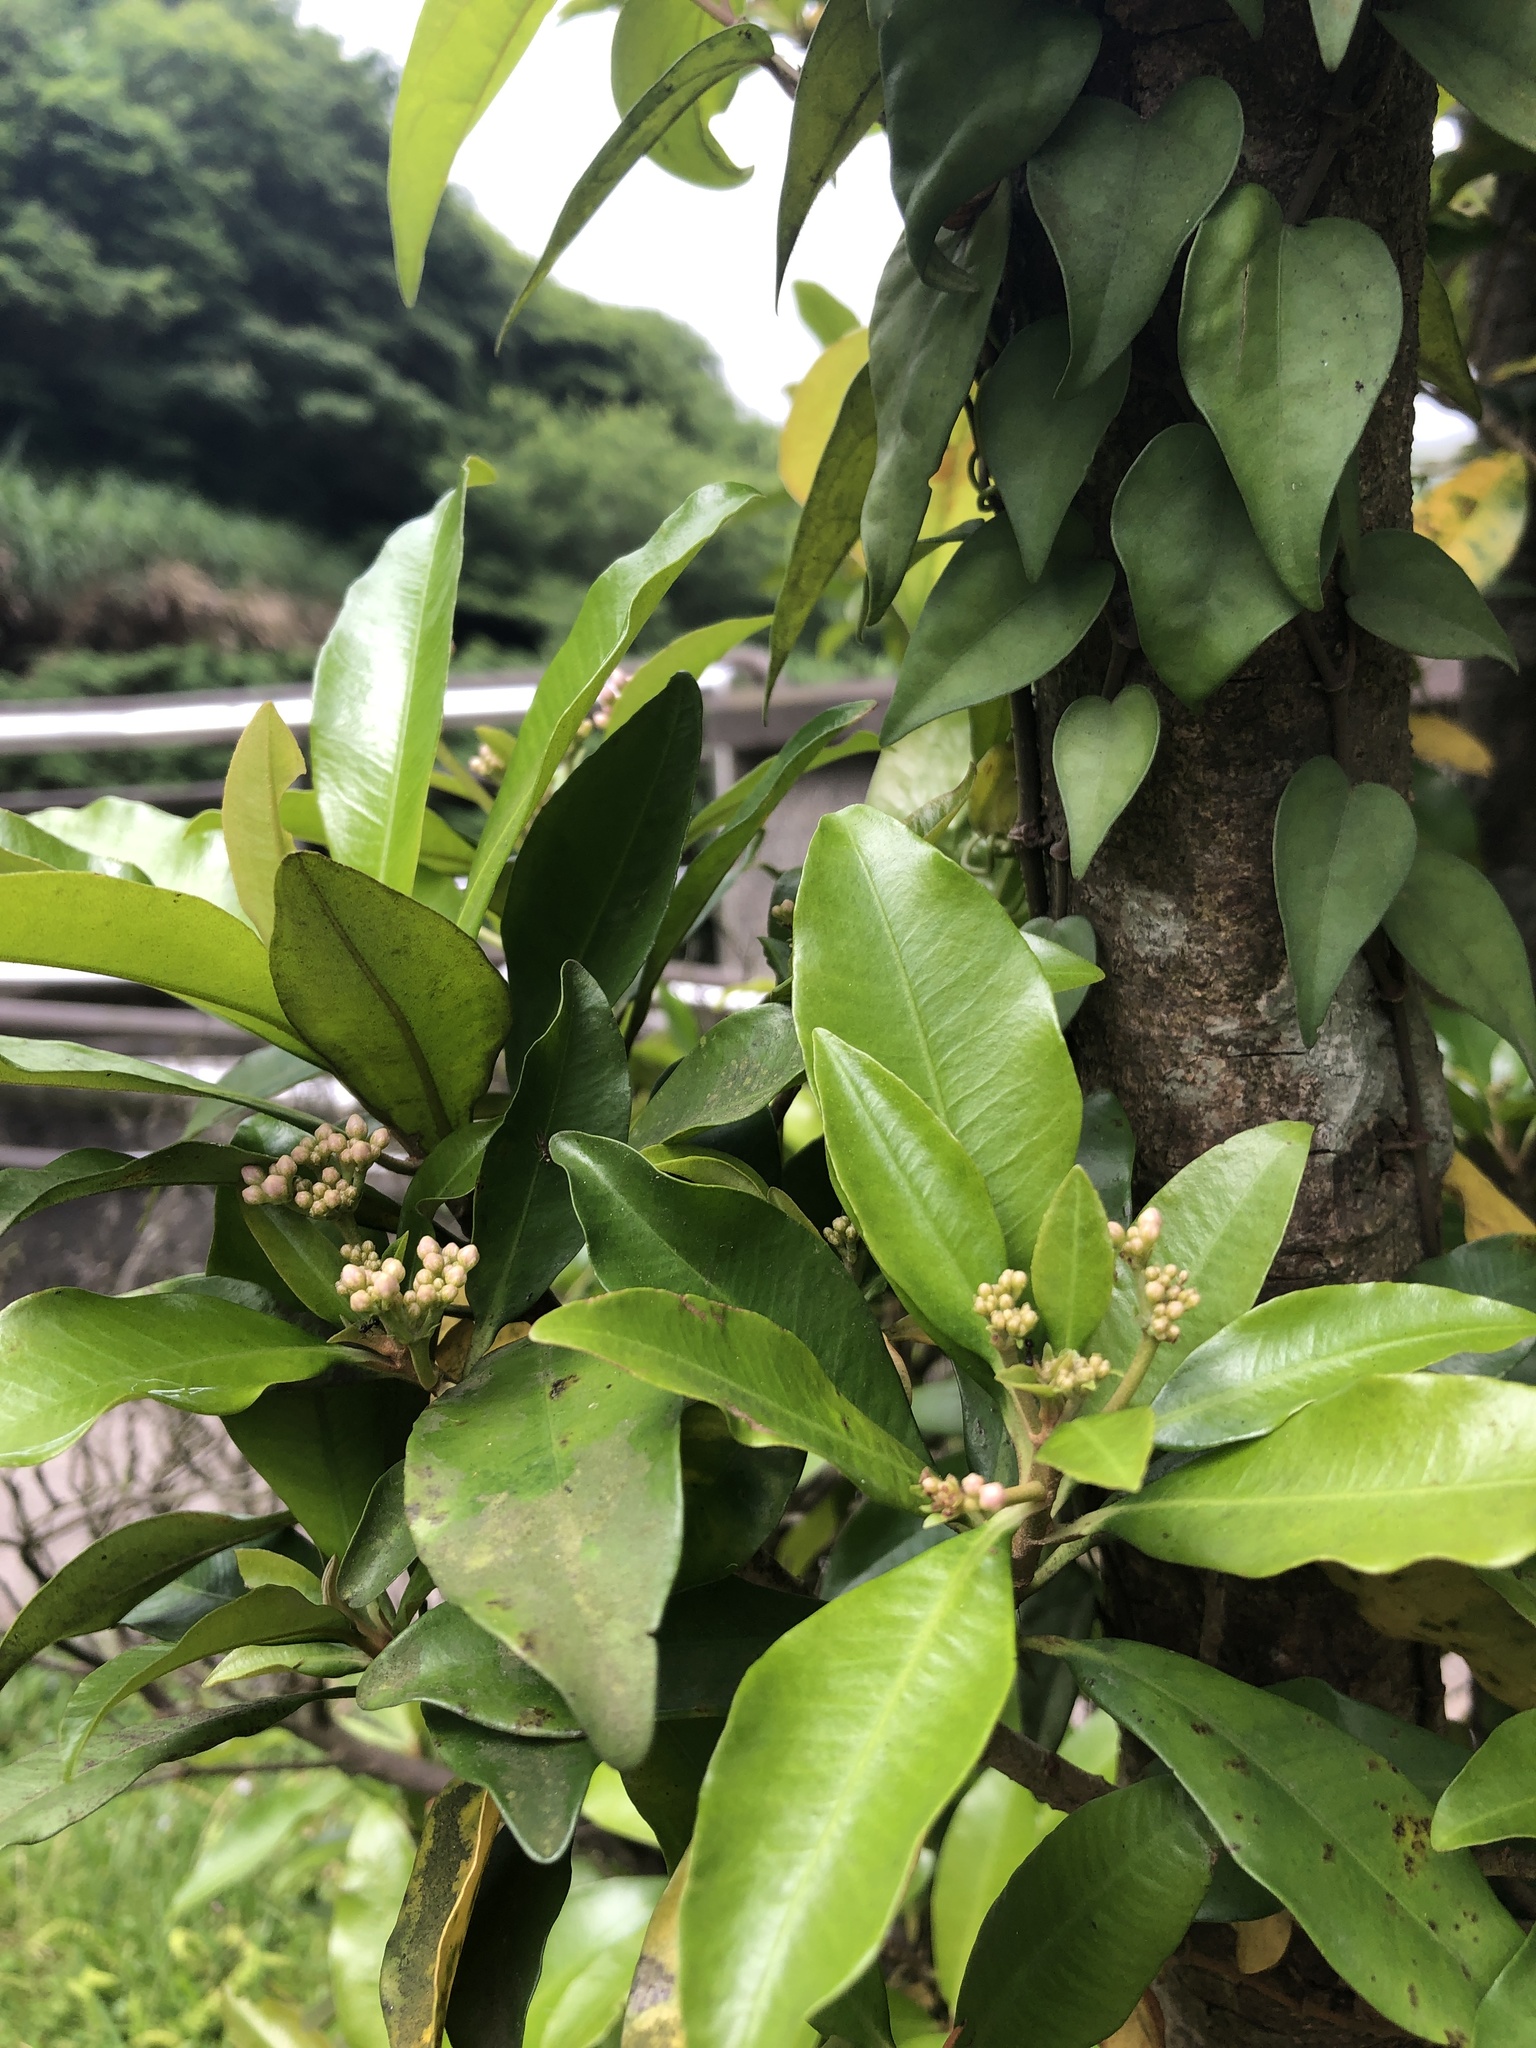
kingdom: Plantae
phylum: Tracheophyta
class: Magnoliopsida
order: Ericales
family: Primulaceae
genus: Ardisia
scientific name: Ardisia sieboldii
